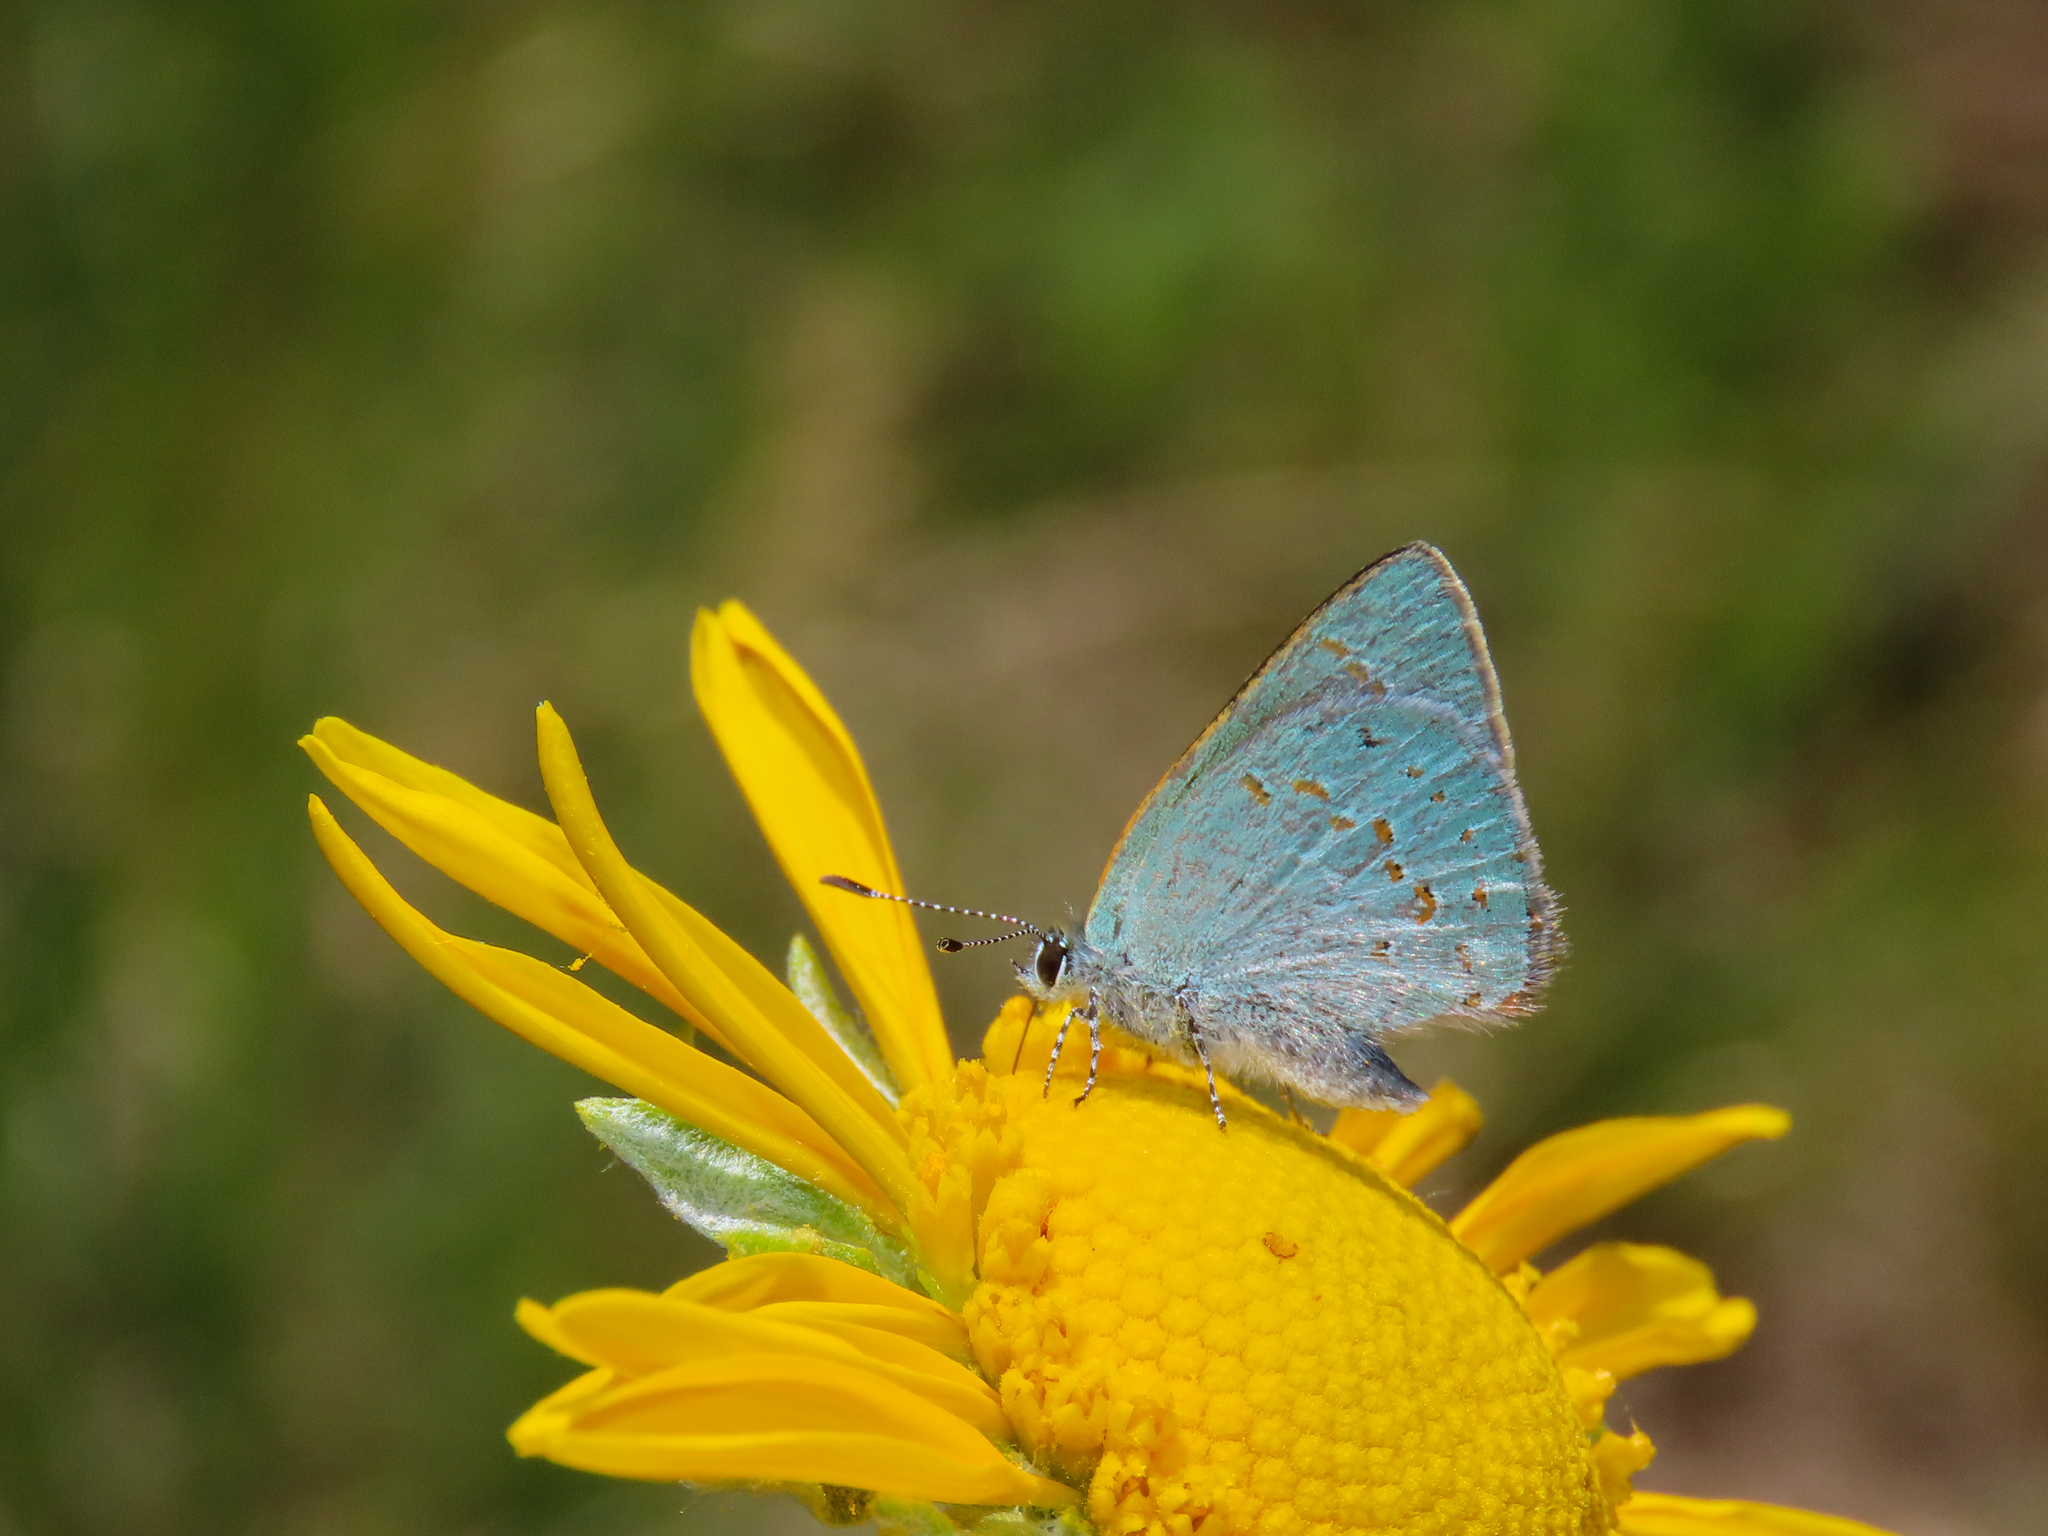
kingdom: Animalia
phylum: Arthropoda
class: Insecta
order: Lepidoptera
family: Lycaenidae
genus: Erora
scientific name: Erora quaderna
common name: Arizona hairstreak
